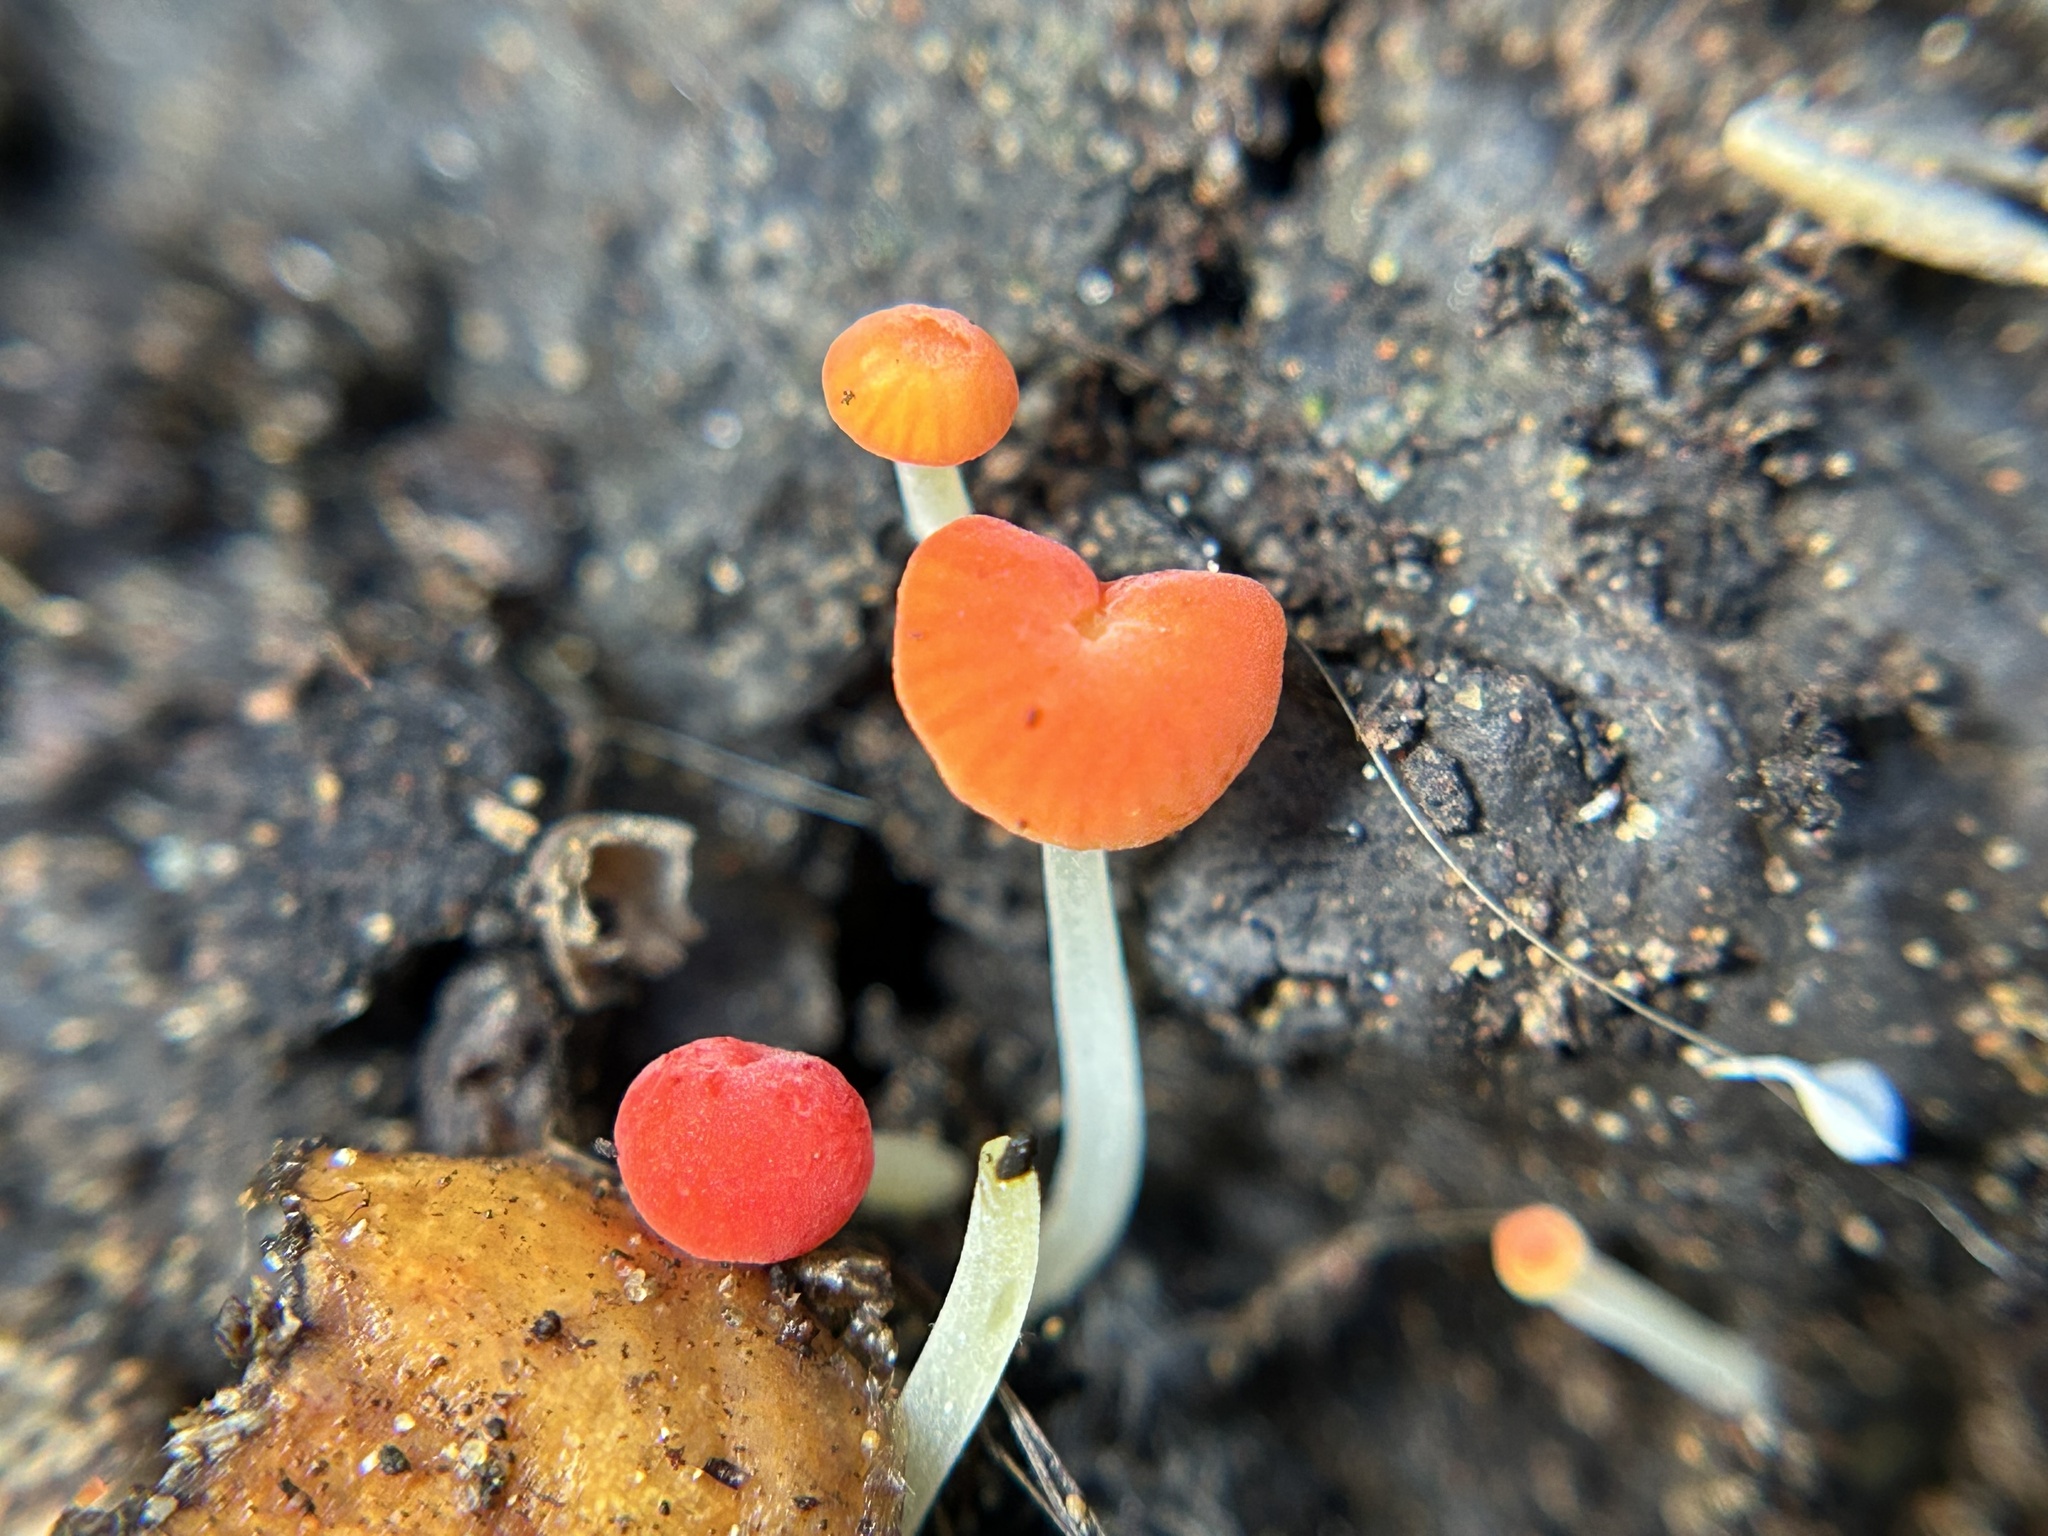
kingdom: Fungi
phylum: Basidiomycota
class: Agaricomycetes
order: Agaricales
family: Mycenaceae
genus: Mycena
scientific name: Mycena acicula
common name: Orange bonnet
